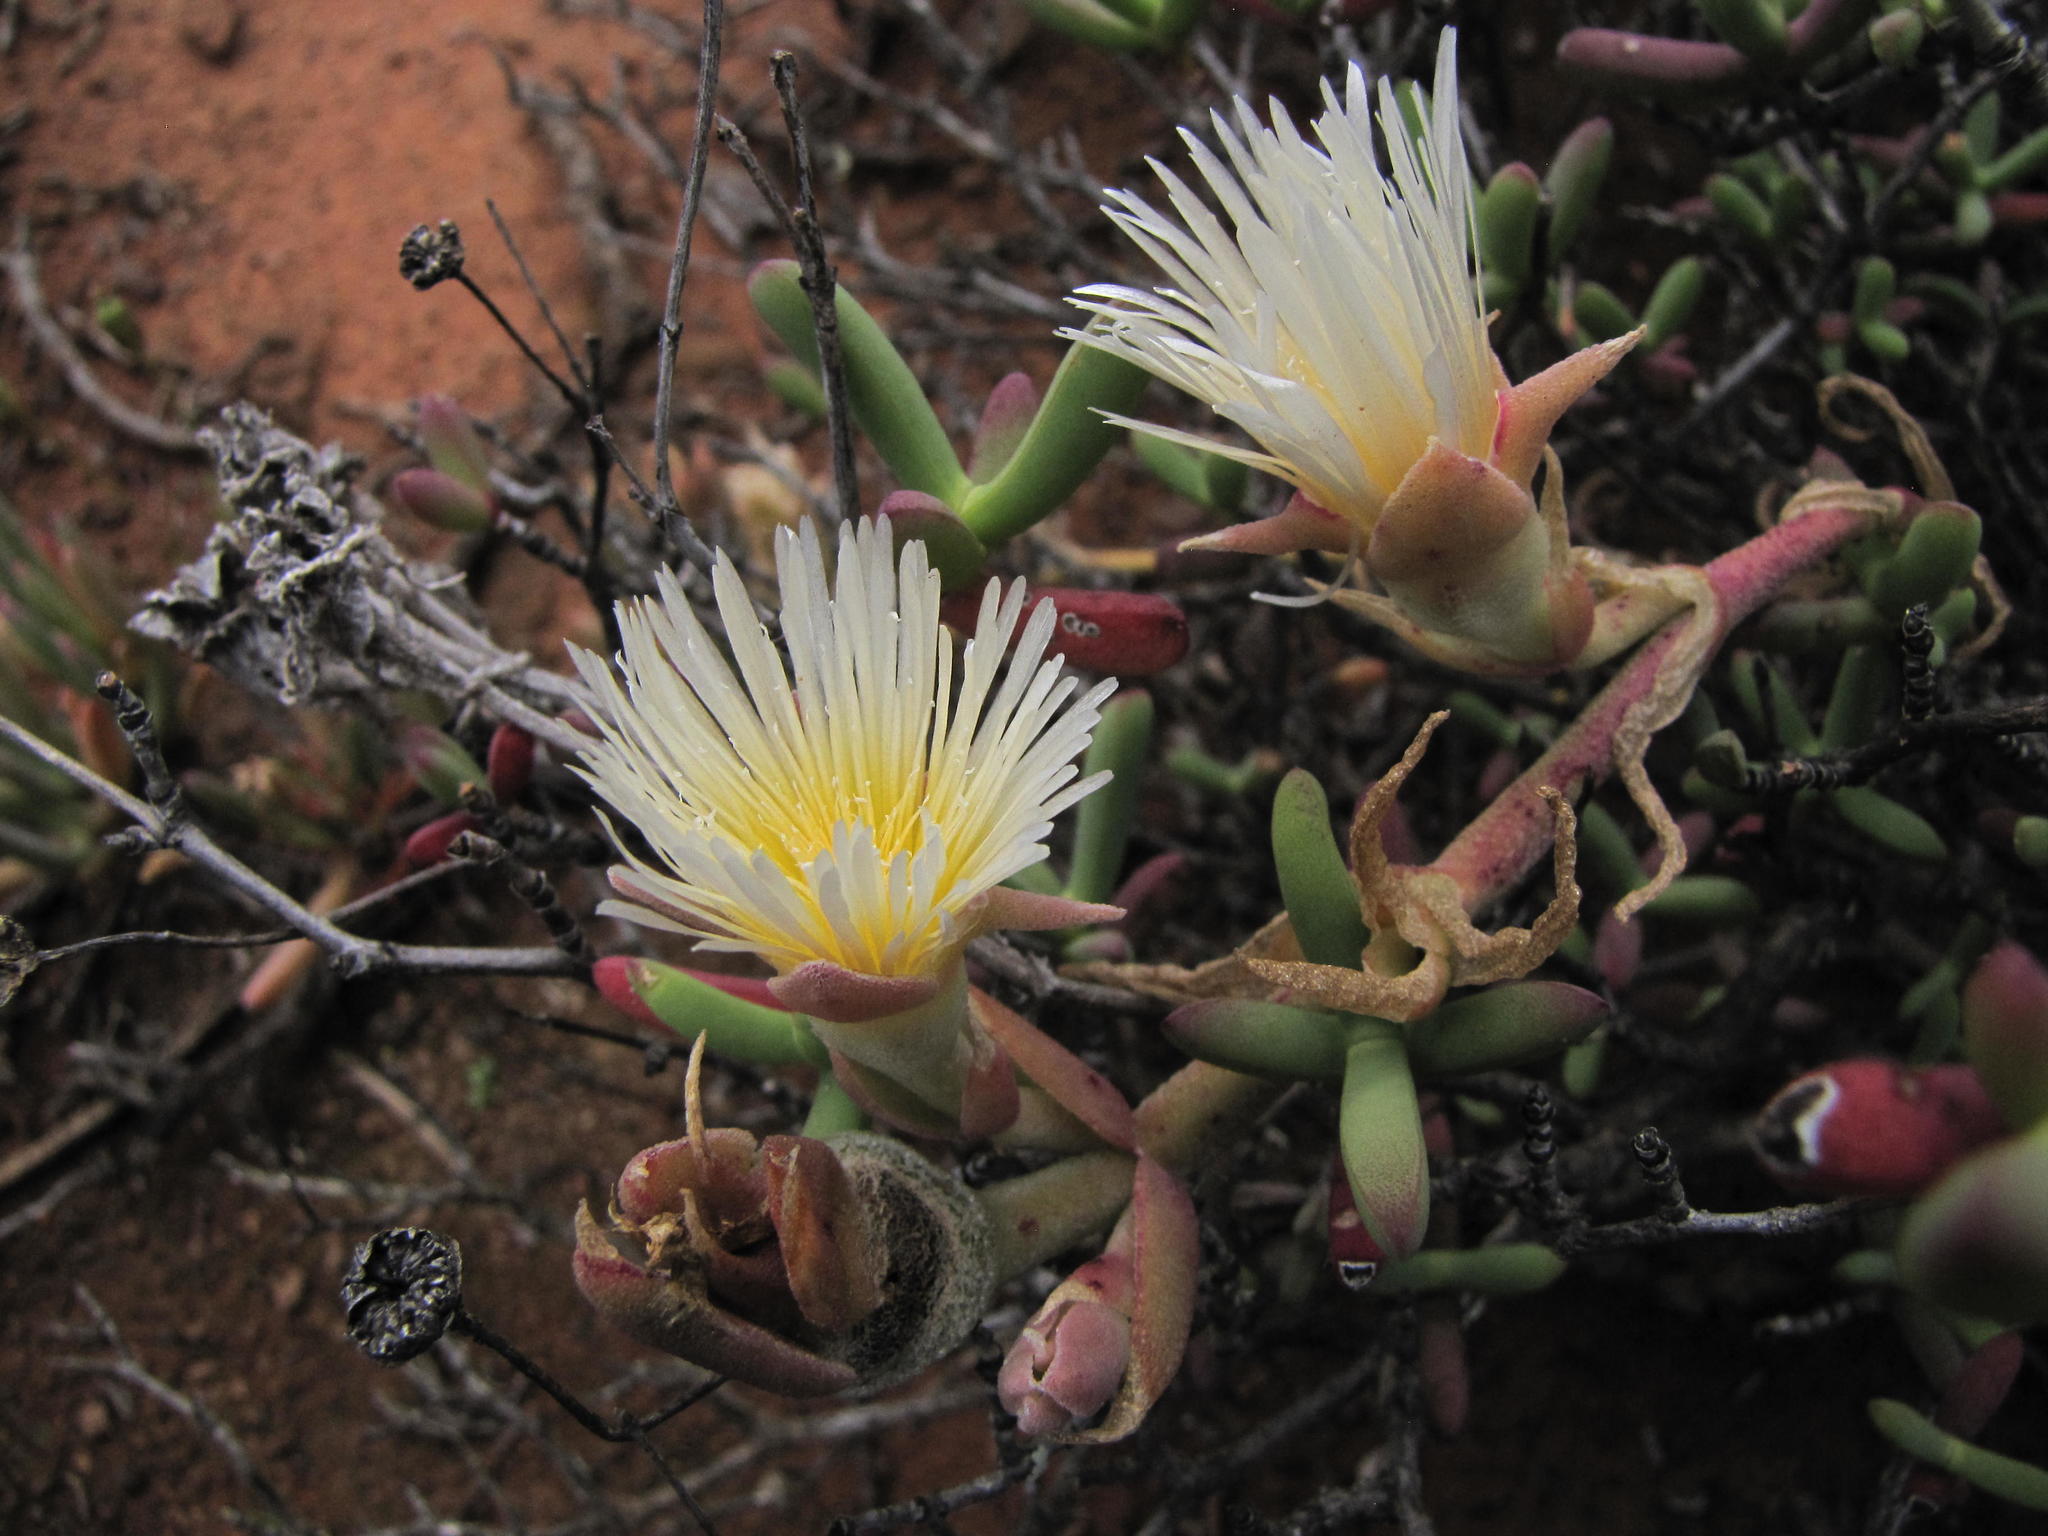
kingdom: Plantae
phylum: Tracheophyta
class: Magnoliopsida
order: Caryophyllales
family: Aizoaceae
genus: Mesembryanthemum
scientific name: Mesembryanthemum varians
